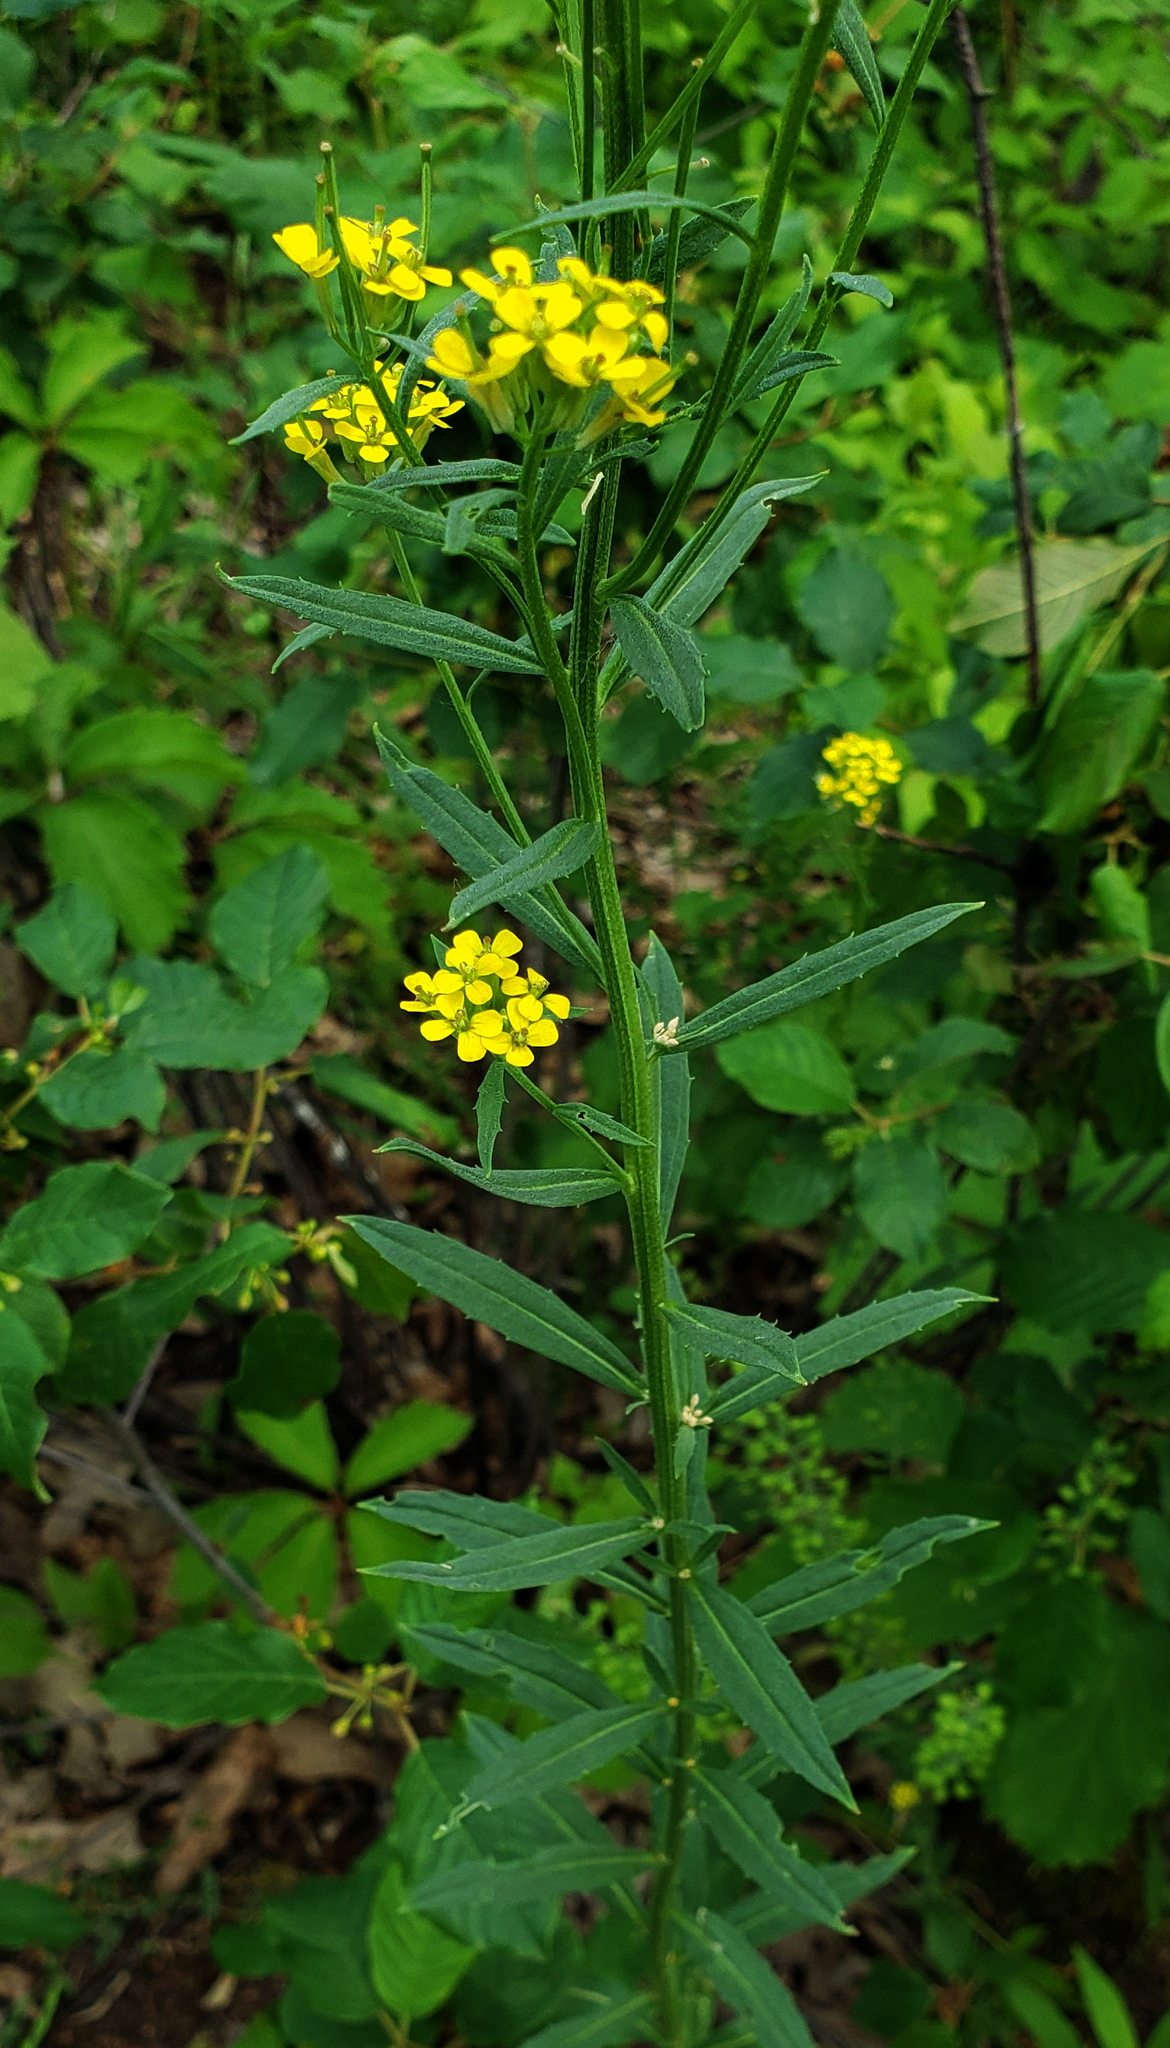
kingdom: Plantae
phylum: Tracheophyta
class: Magnoliopsida
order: Brassicales
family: Brassicaceae
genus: Erysimum
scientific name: Erysimum cheiranthoides
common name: Treacle mustard
